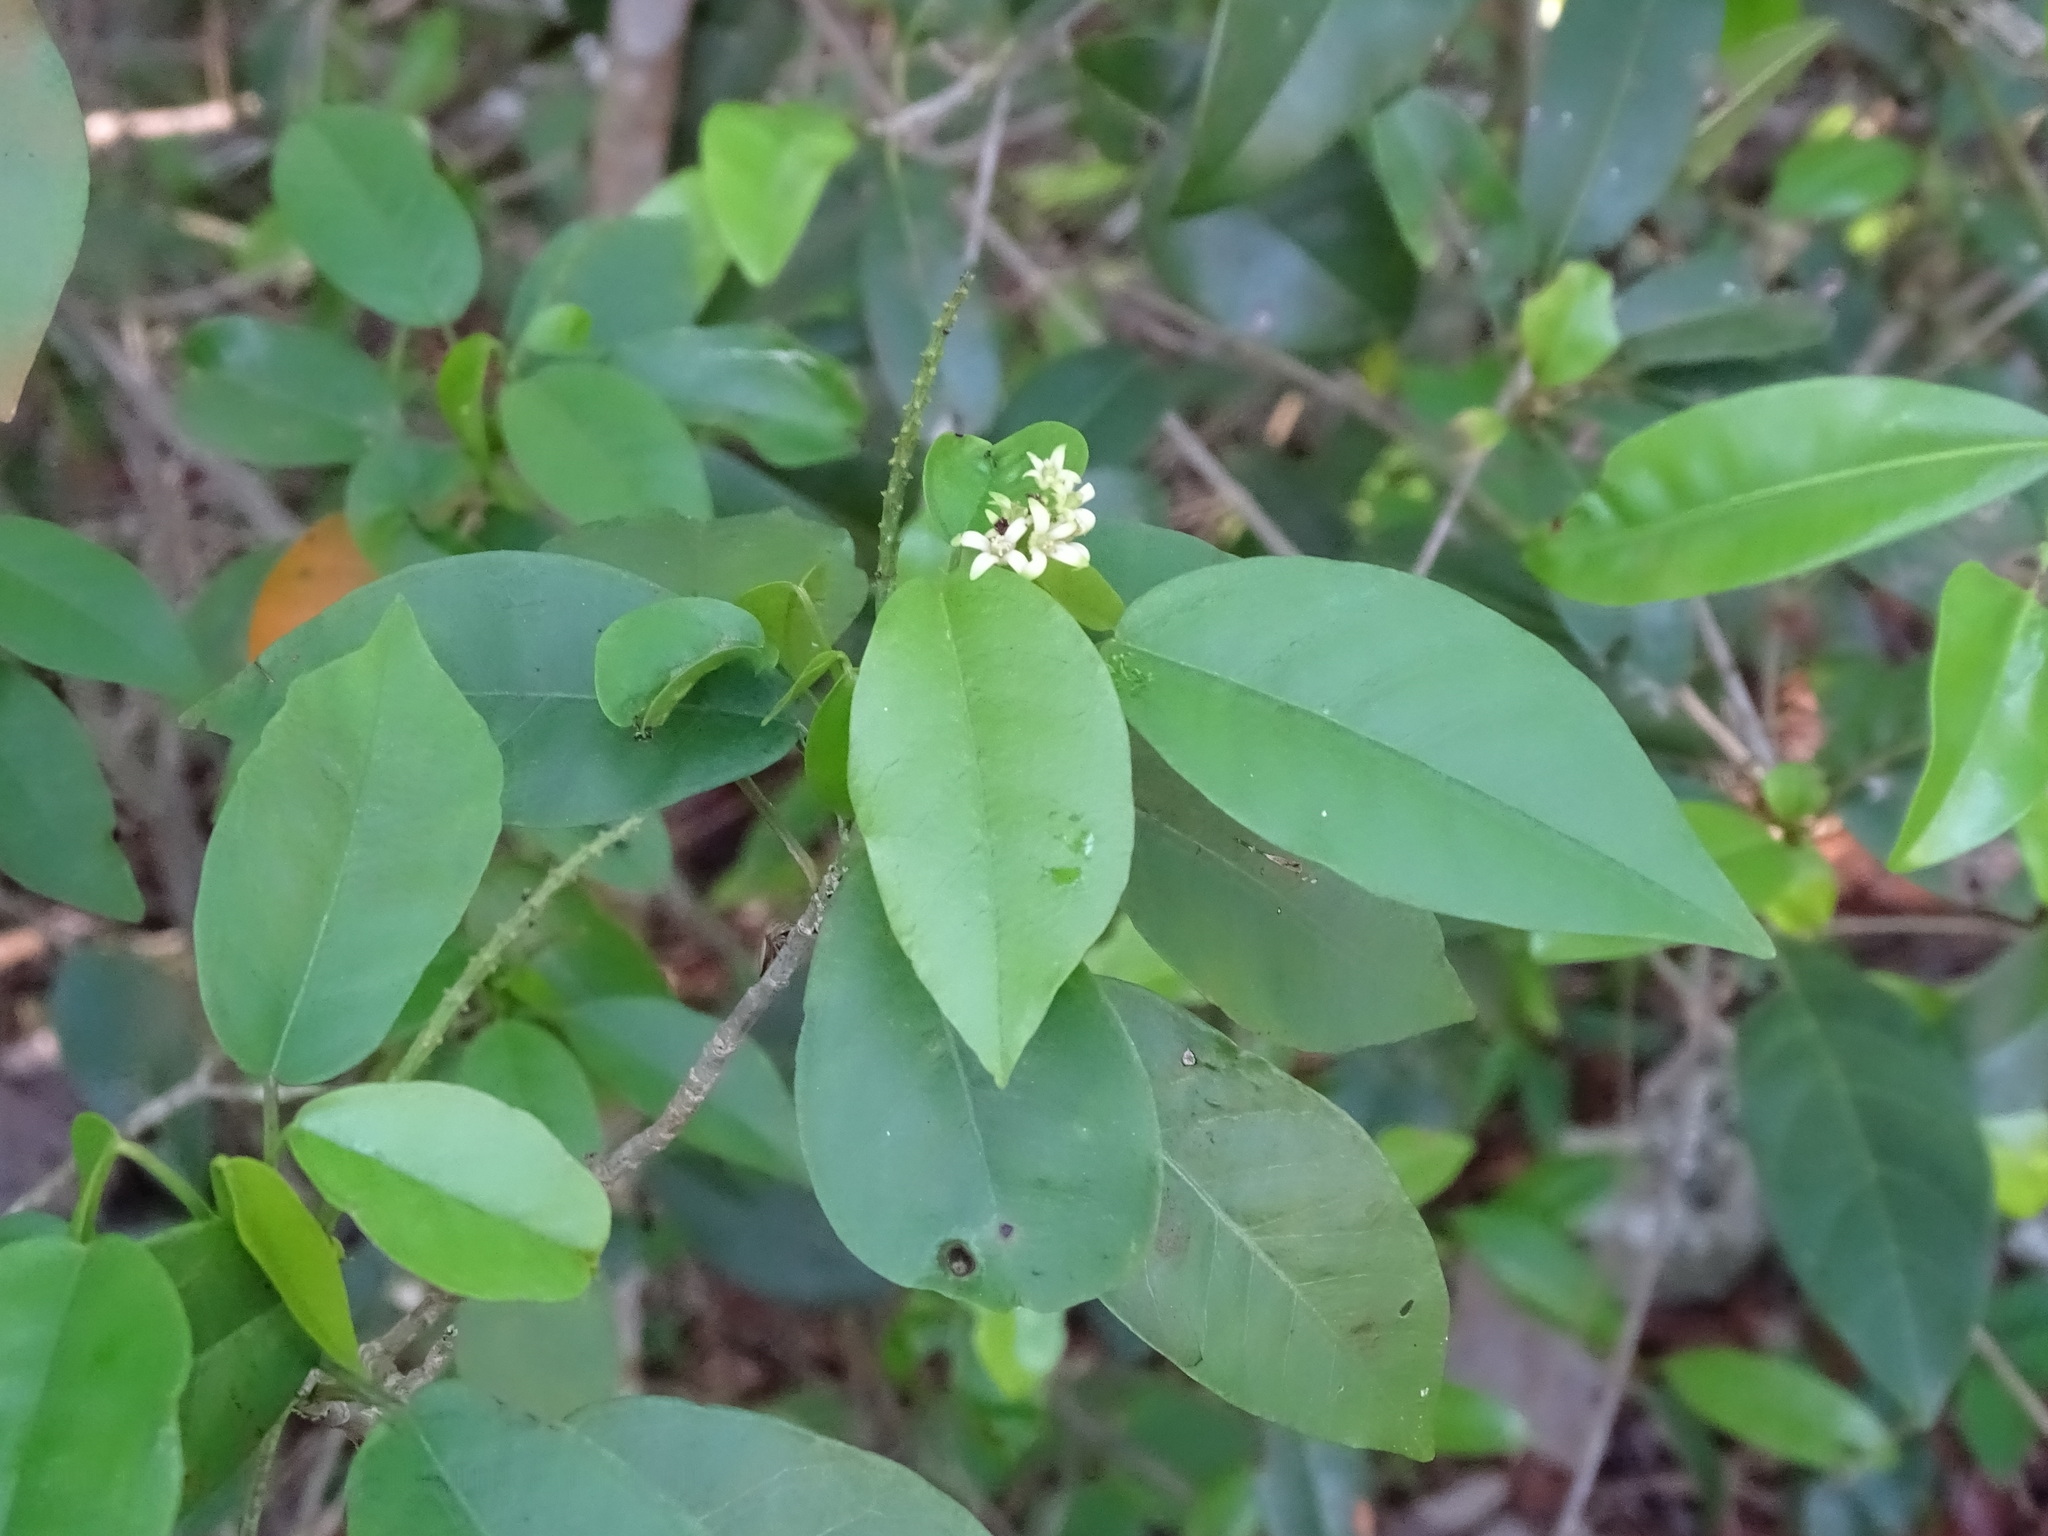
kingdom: Plantae
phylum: Tracheophyta
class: Magnoliopsida
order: Malpighiales
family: Euphorbiaceae
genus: Croton
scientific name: Croton glabellus
